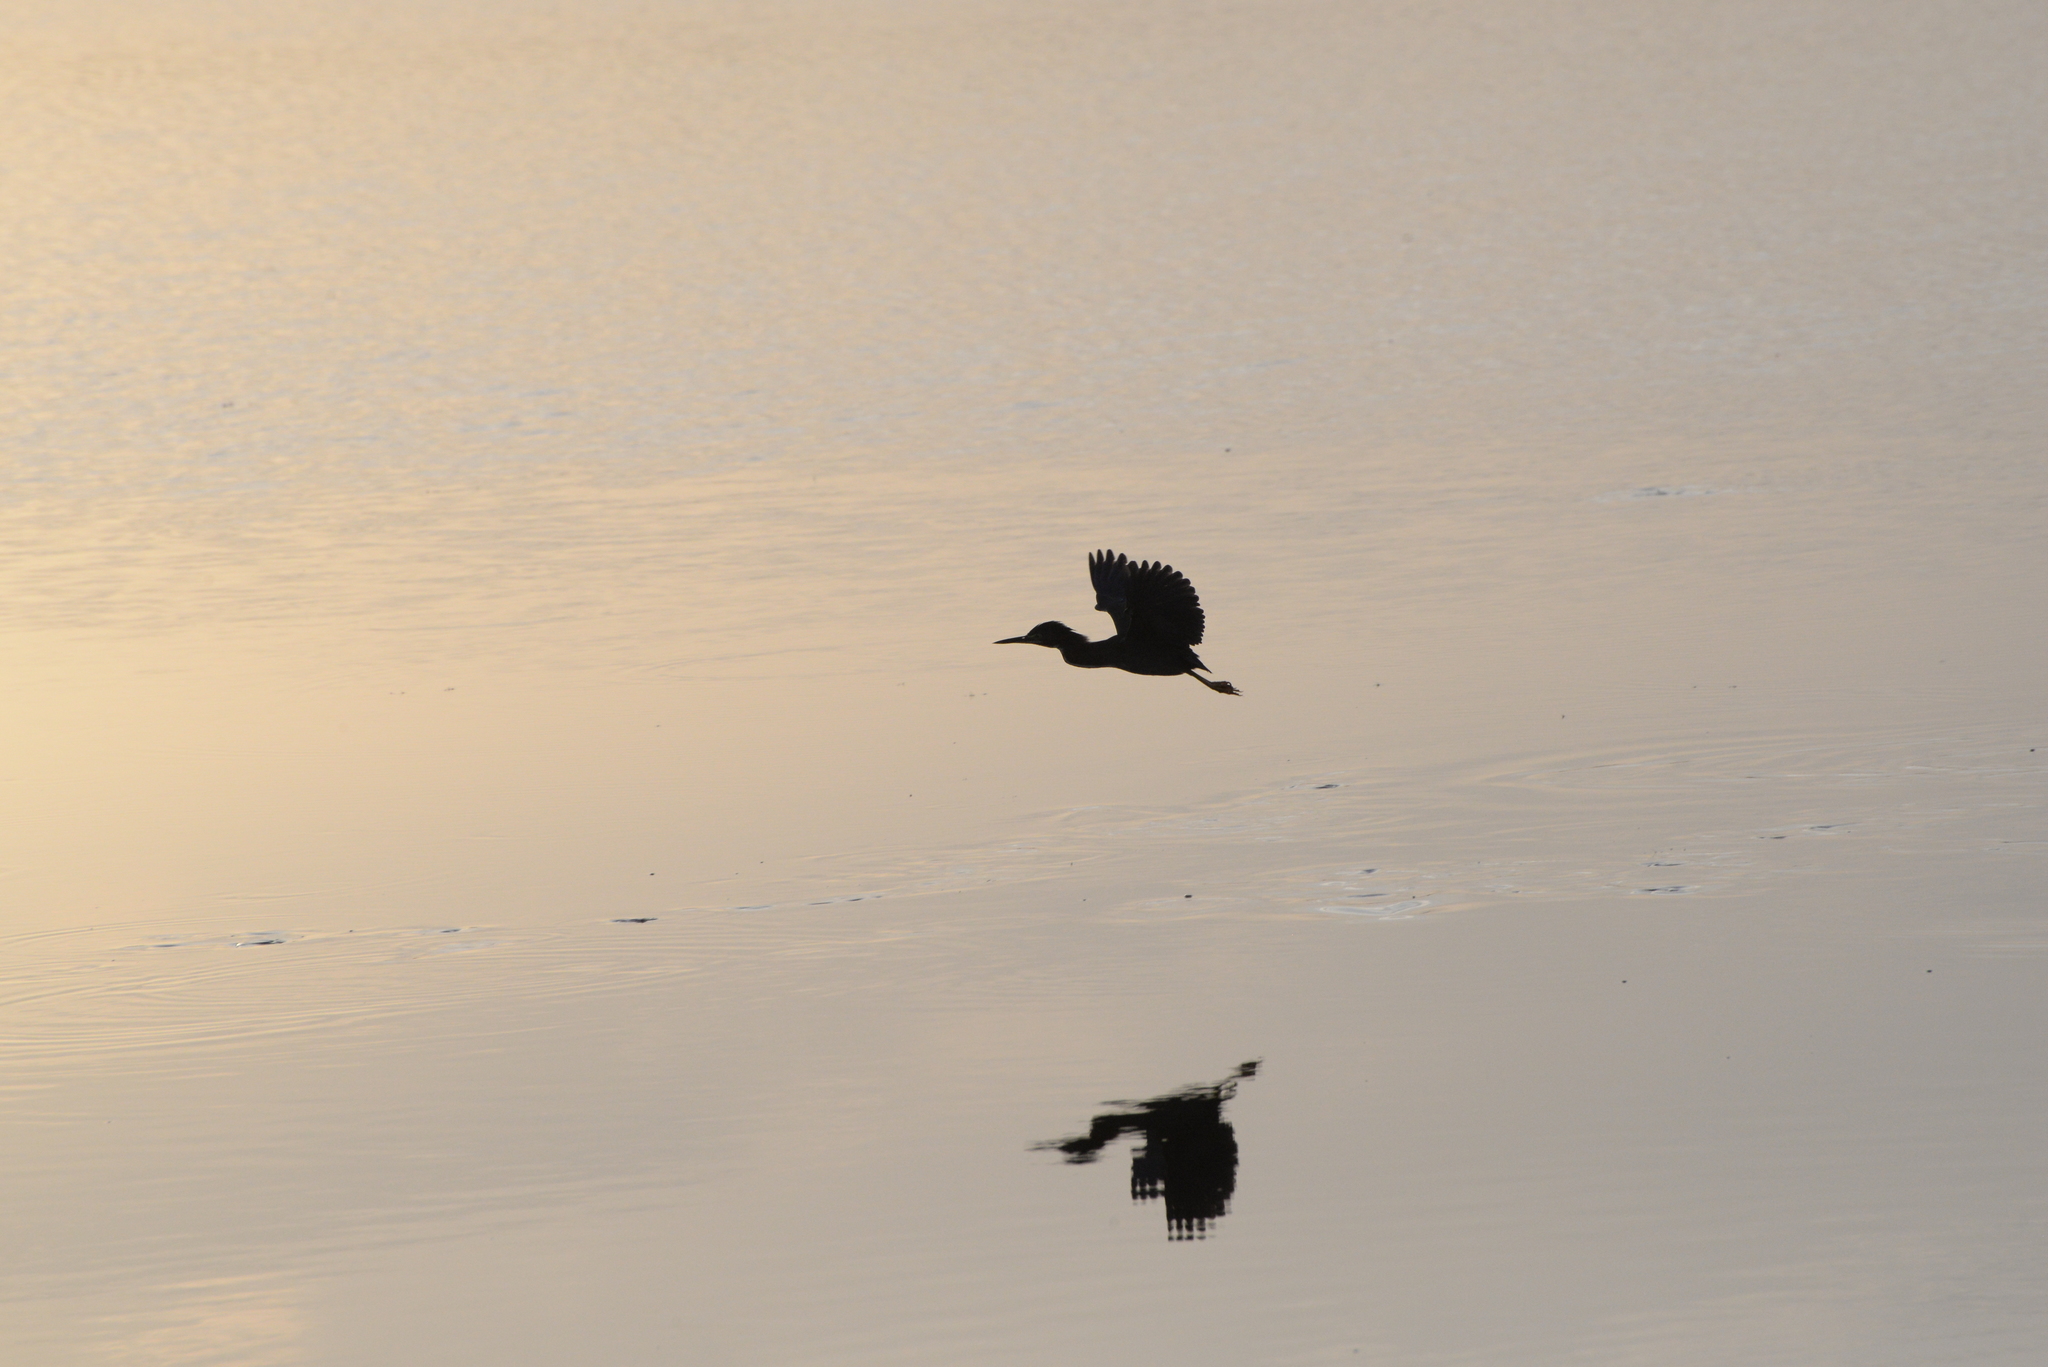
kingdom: Animalia
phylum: Chordata
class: Aves
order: Pelecaniformes
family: Ardeidae
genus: Butorides
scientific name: Butorides virescens
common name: Green heron
